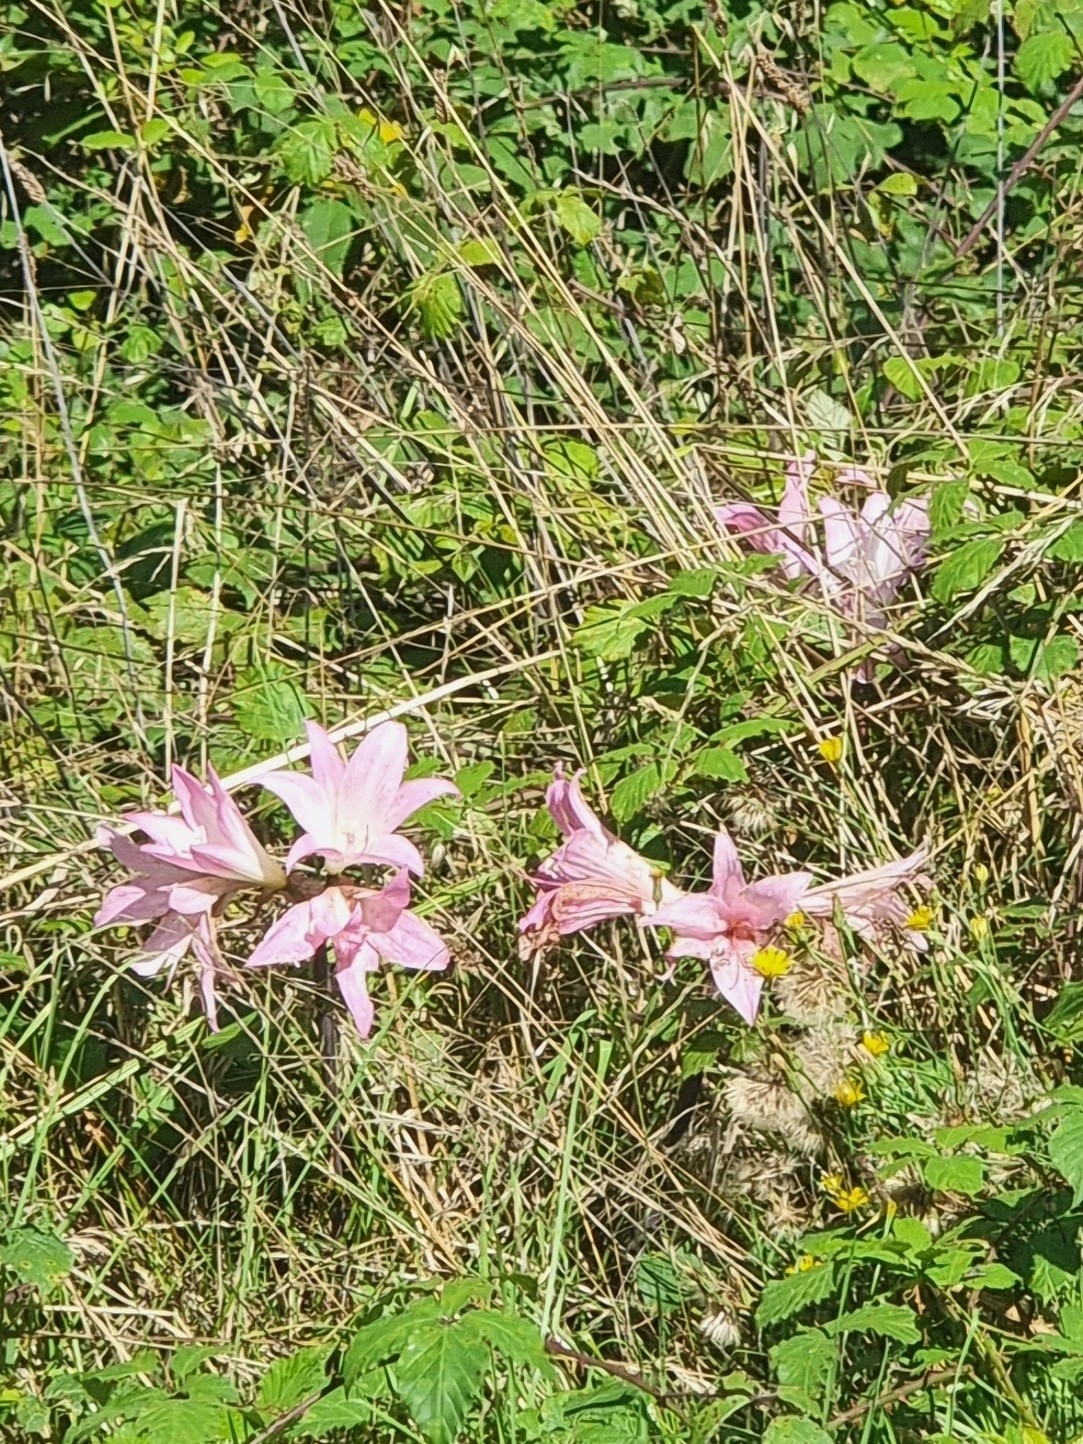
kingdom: Plantae
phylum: Tracheophyta
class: Liliopsida
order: Asparagales
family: Amaryllidaceae
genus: Amaryllis
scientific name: Amaryllis belladonna
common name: Jersey lily
